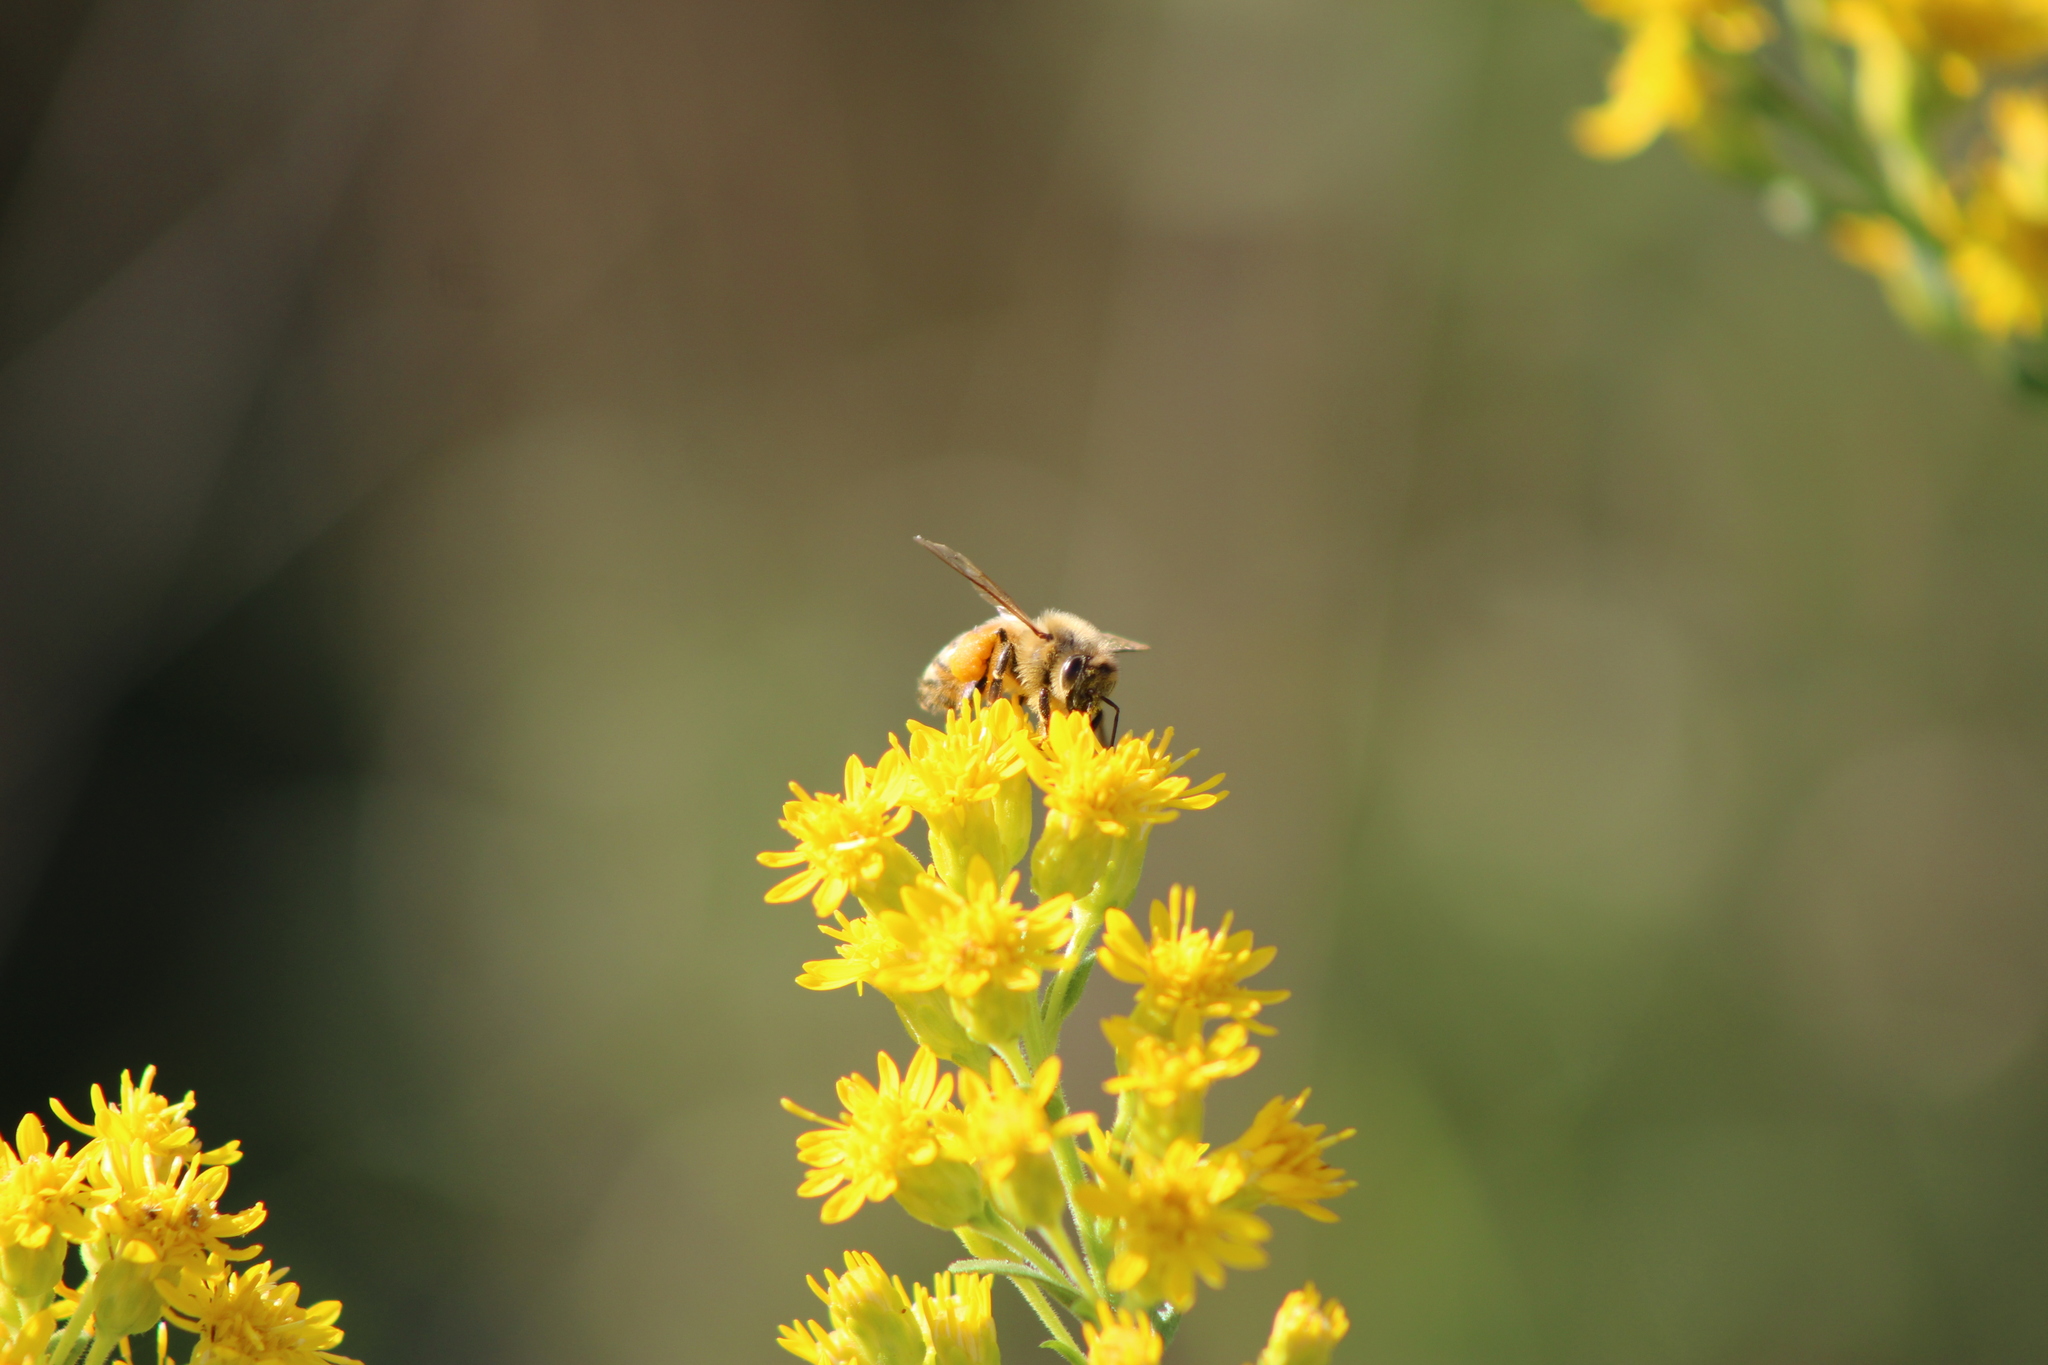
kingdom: Animalia
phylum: Arthropoda
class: Insecta
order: Hymenoptera
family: Apidae
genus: Apis
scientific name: Apis mellifera
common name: Honey bee
